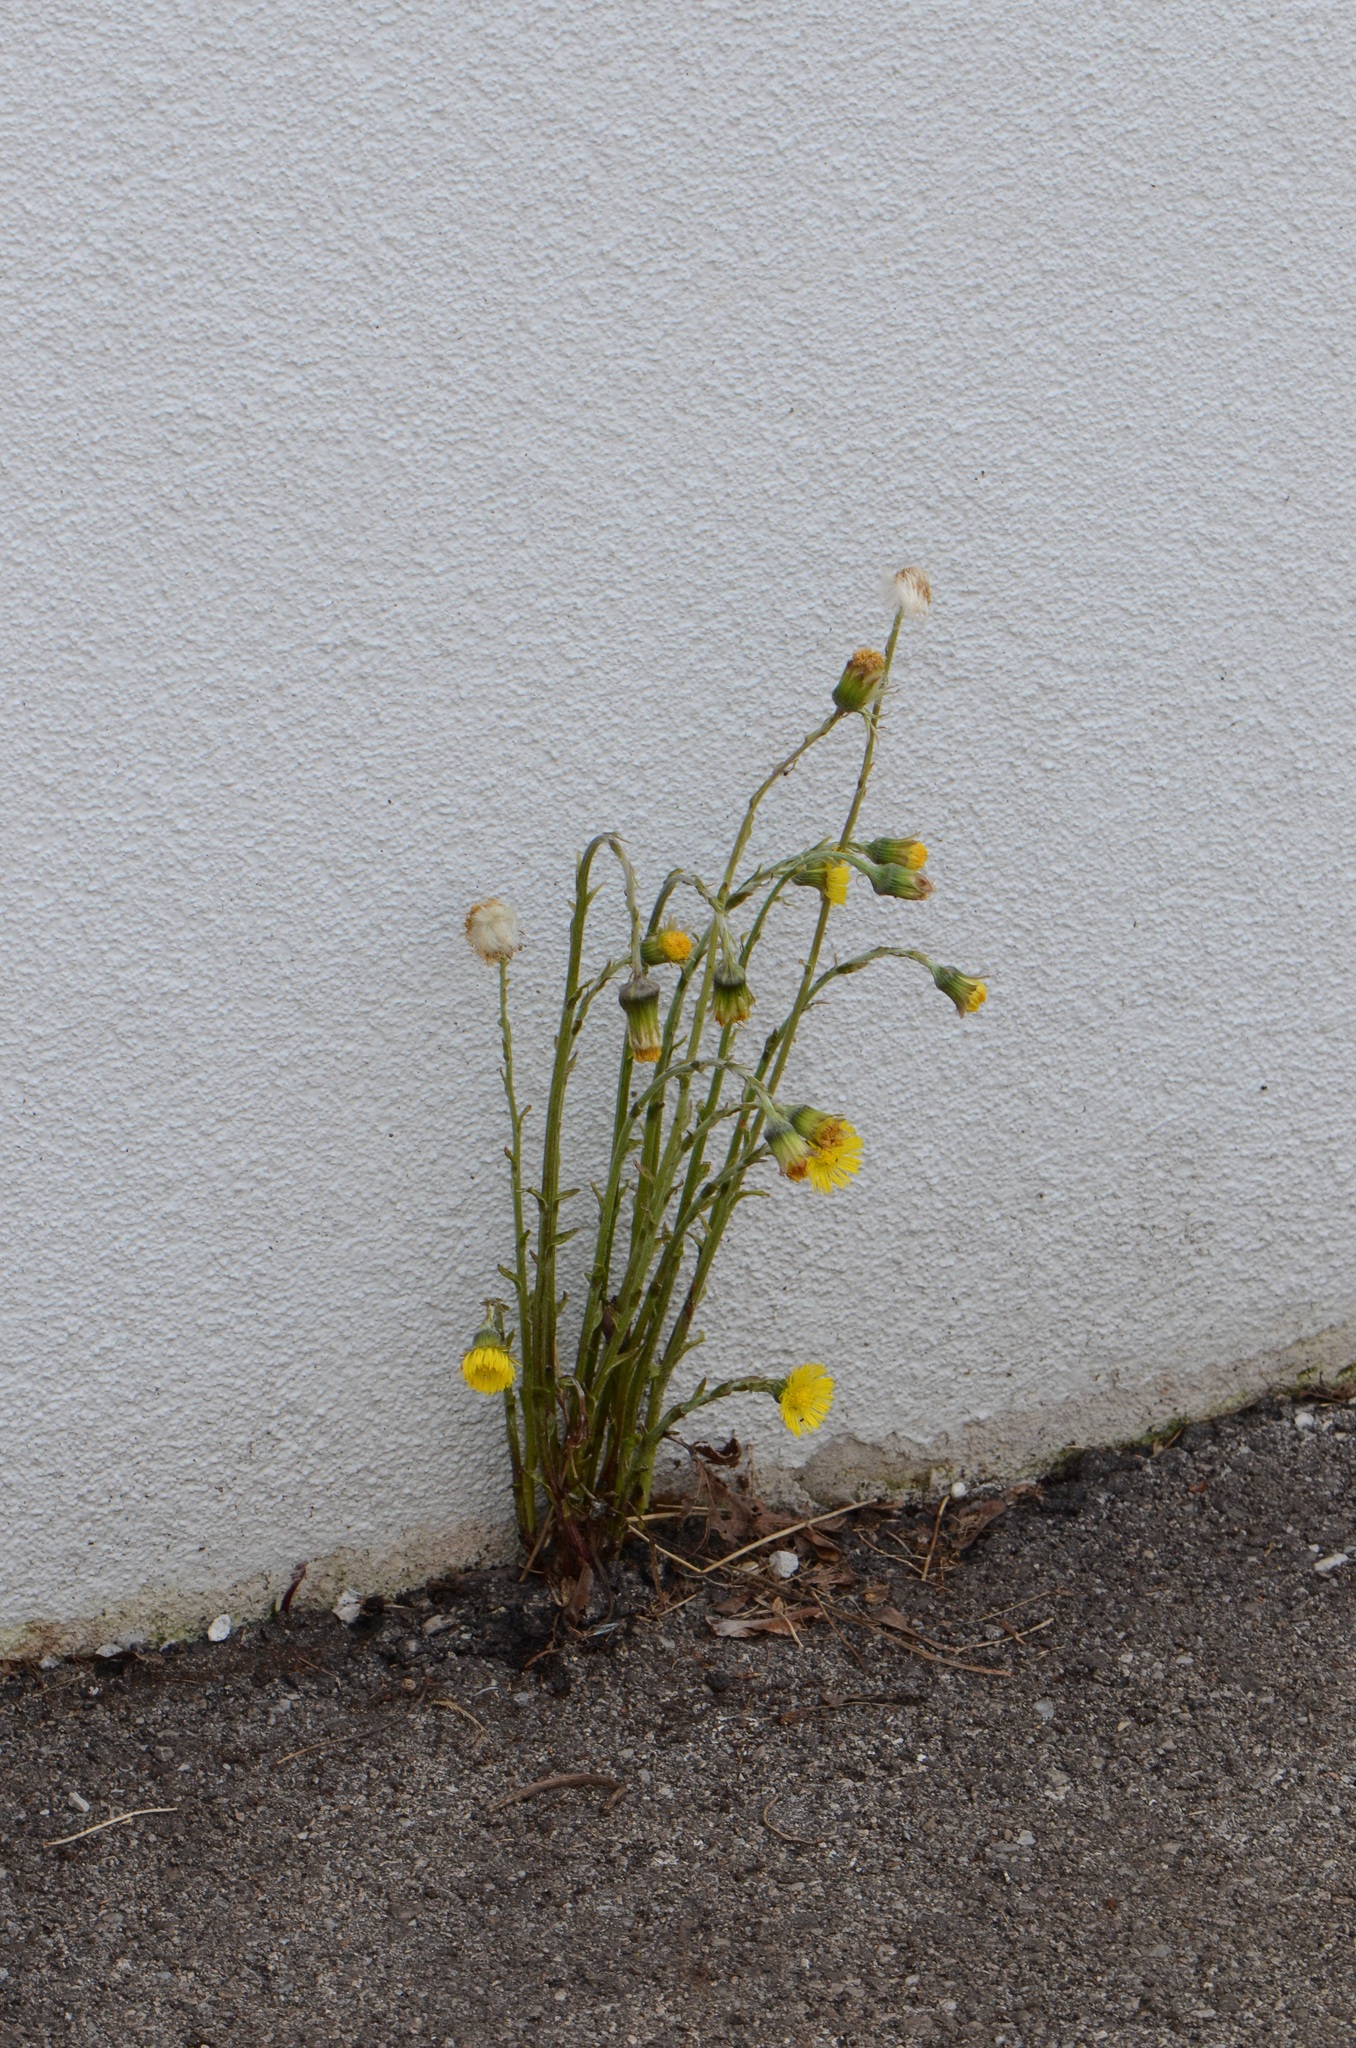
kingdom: Plantae
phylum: Tracheophyta
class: Magnoliopsida
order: Asterales
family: Asteraceae
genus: Tussilago
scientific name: Tussilago farfara
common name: Coltsfoot
